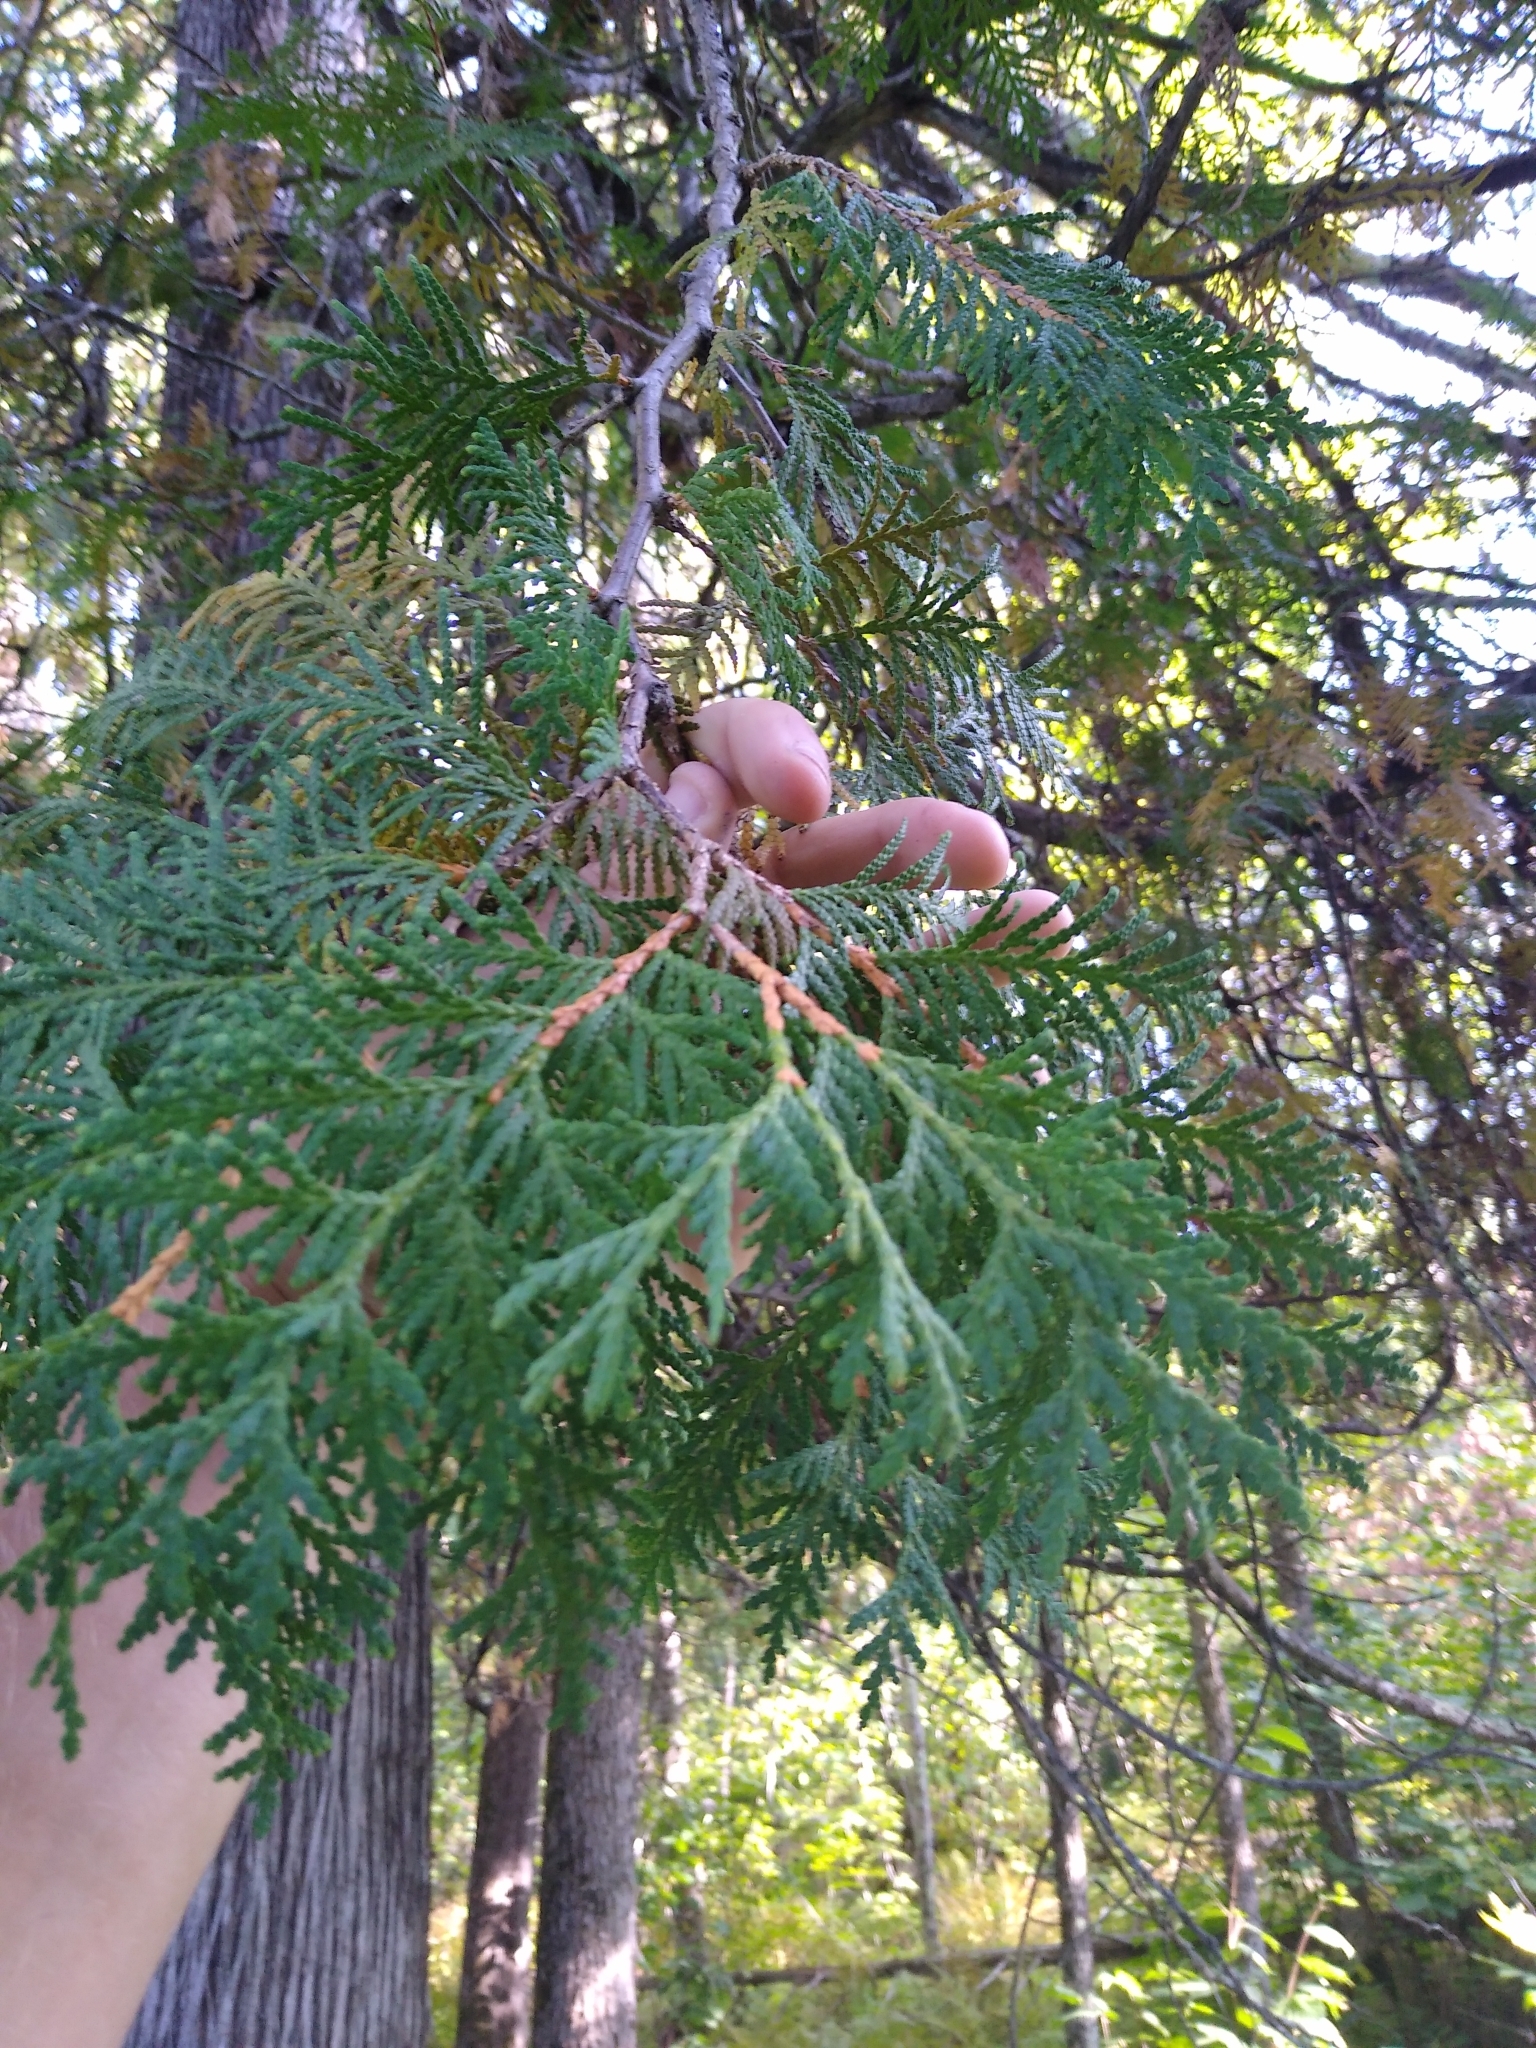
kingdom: Plantae
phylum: Tracheophyta
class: Pinopsida
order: Pinales
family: Cupressaceae
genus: Thuja
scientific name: Thuja occidentalis
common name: Northern white-cedar
